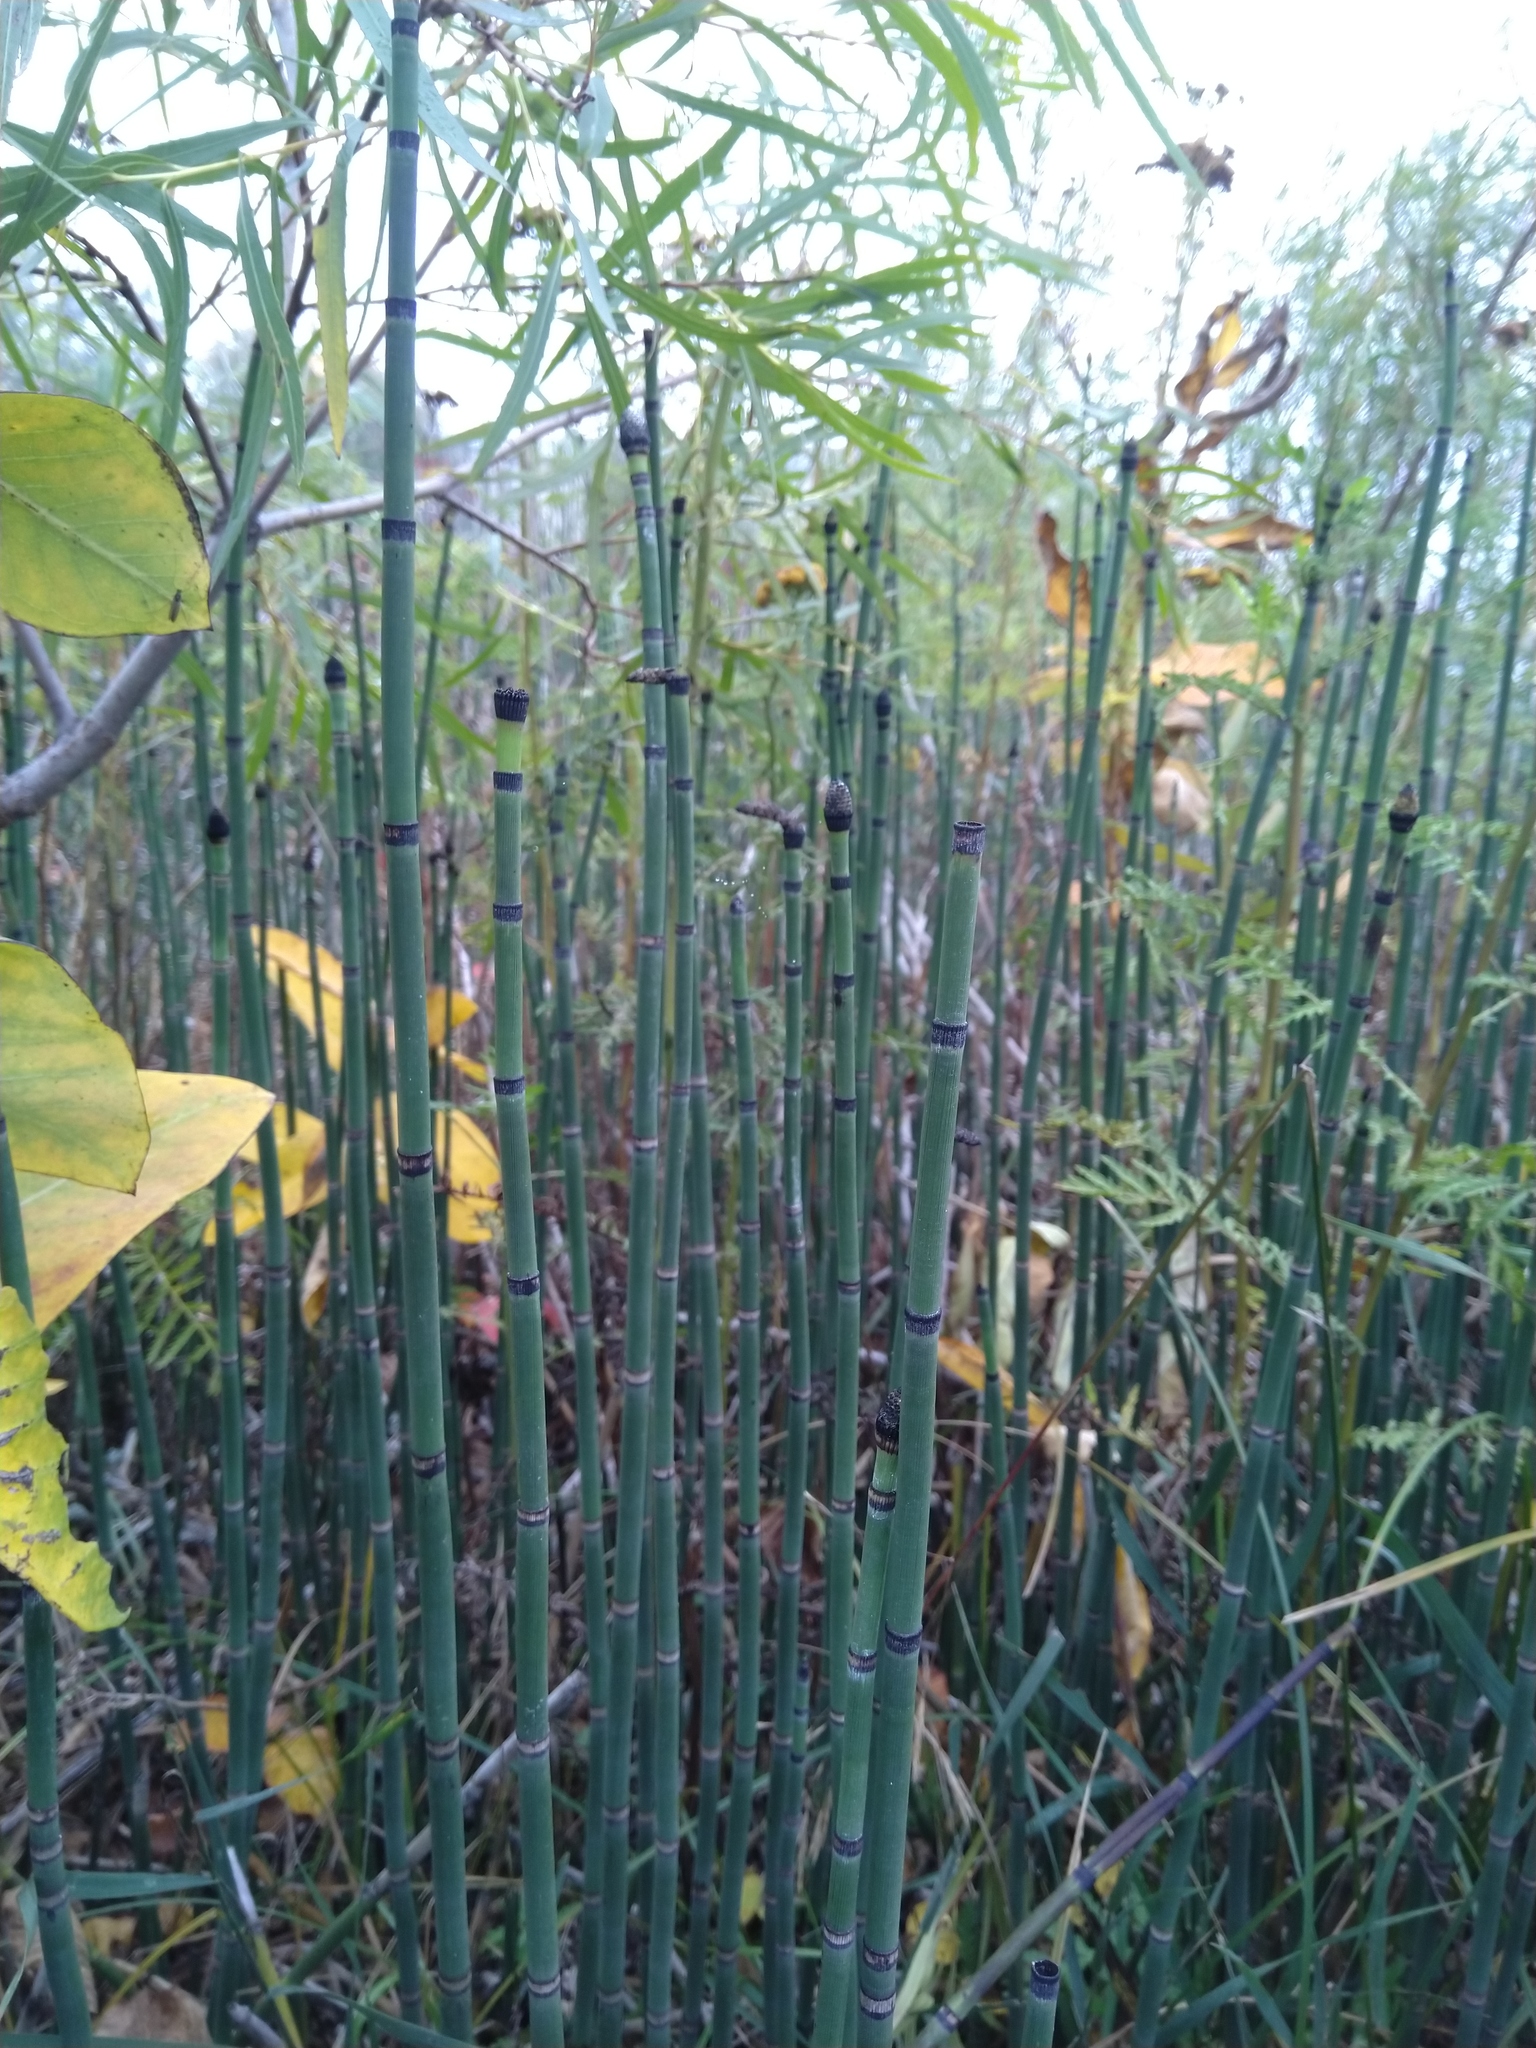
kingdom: Plantae
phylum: Tracheophyta
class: Polypodiopsida
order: Equisetales
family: Equisetaceae
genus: Equisetum
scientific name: Equisetum praealtum
